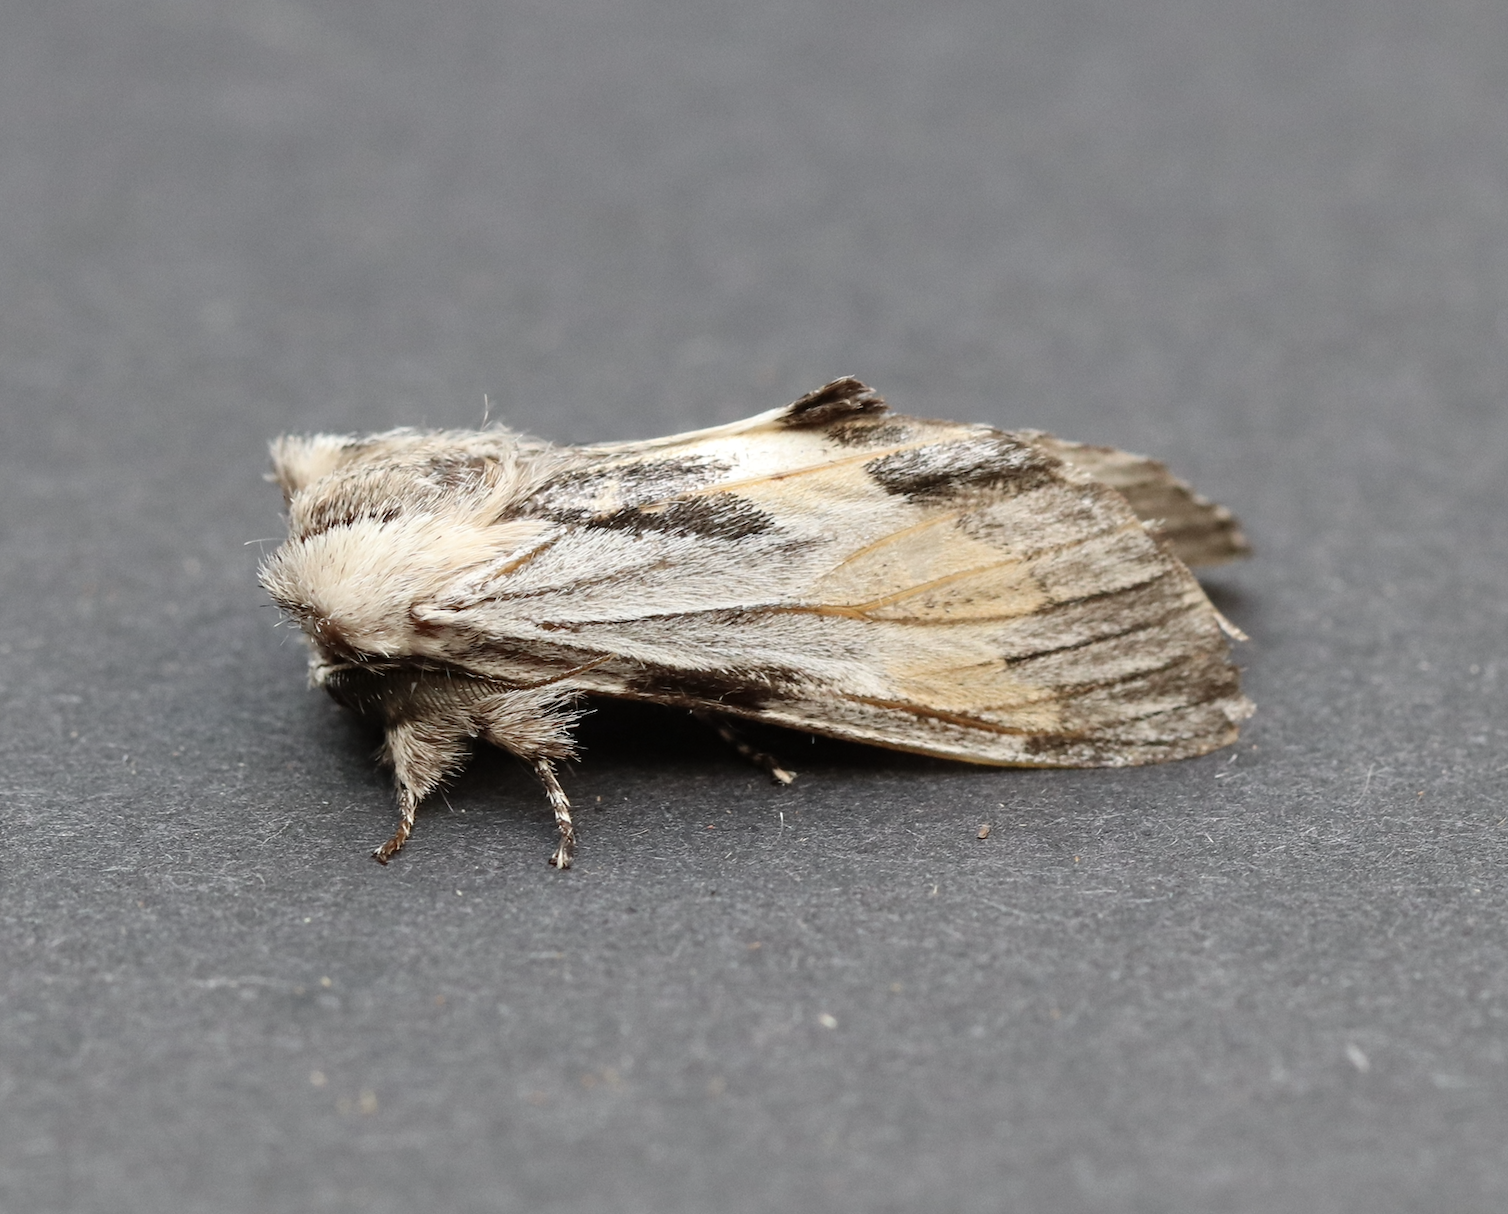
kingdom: Animalia
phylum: Arthropoda
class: Insecta
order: Lepidoptera
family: Notodontidae
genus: Harpyia
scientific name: Harpyia milhauseri
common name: Tawny prominent
